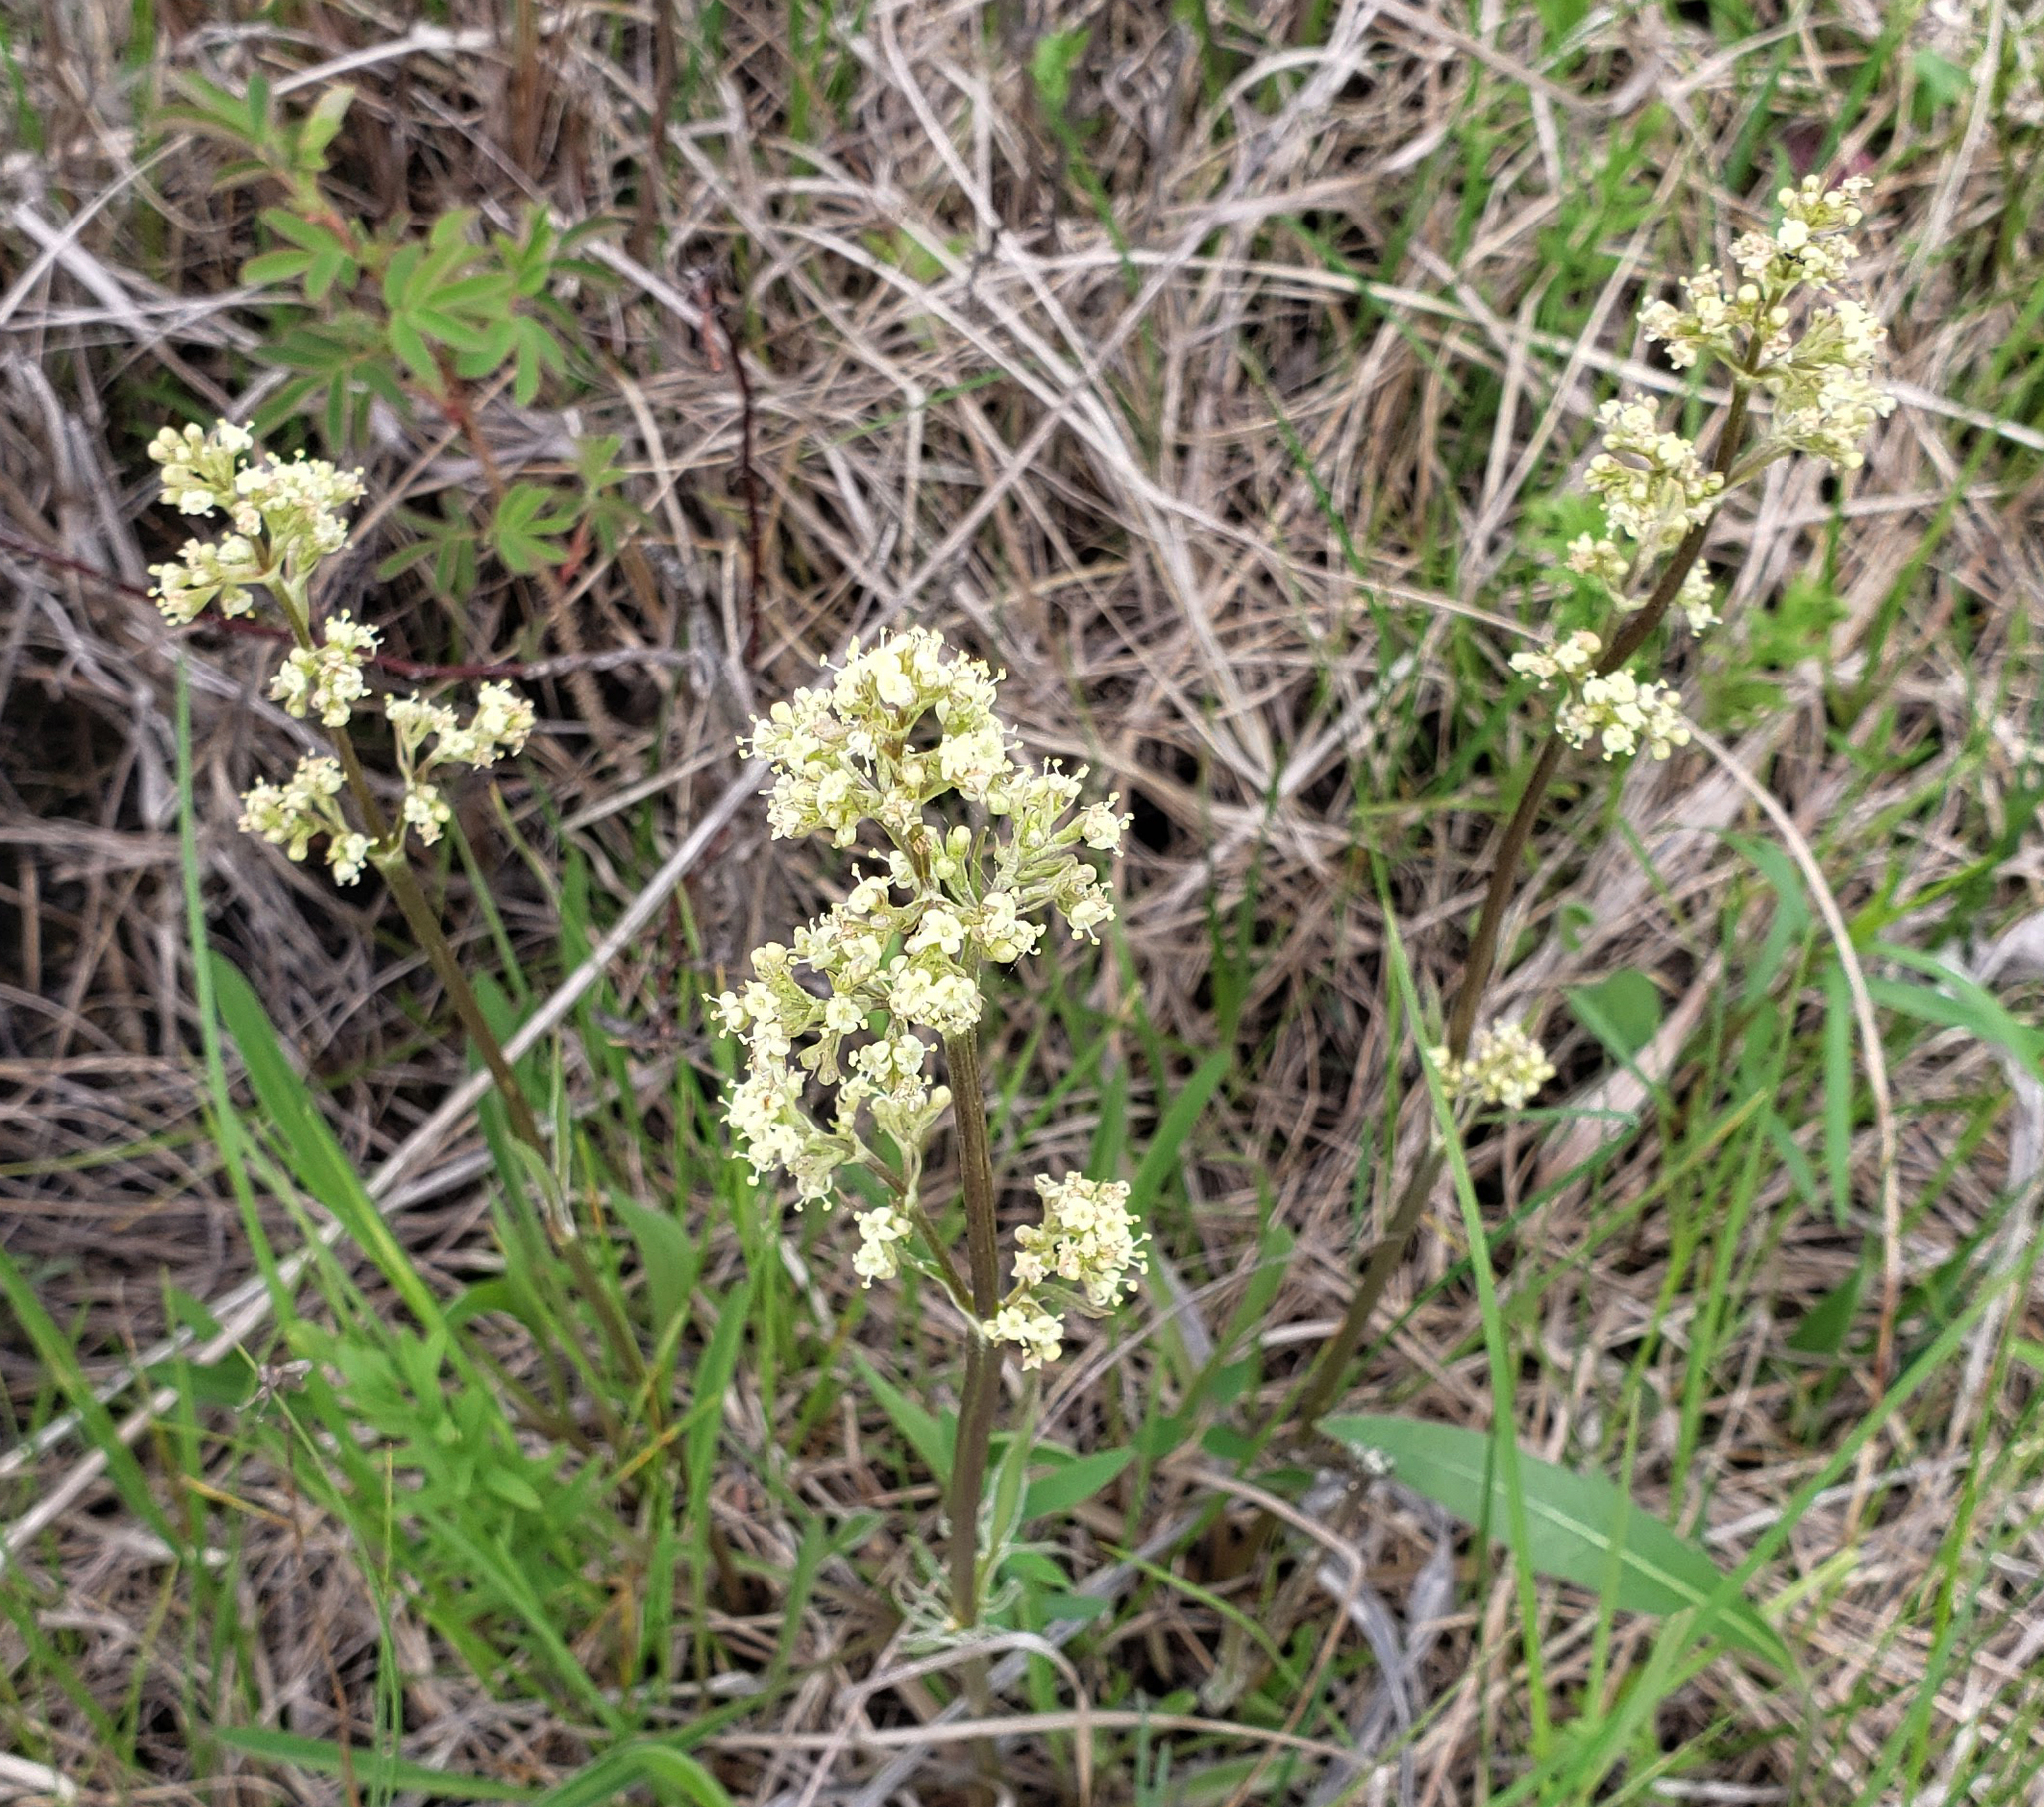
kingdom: Plantae
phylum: Tracheophyta
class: Magnoliopsida
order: Dipsacales
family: Caprifoliaceae
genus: Valeriana
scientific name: Valeriana edulis
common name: Taproot valerian
